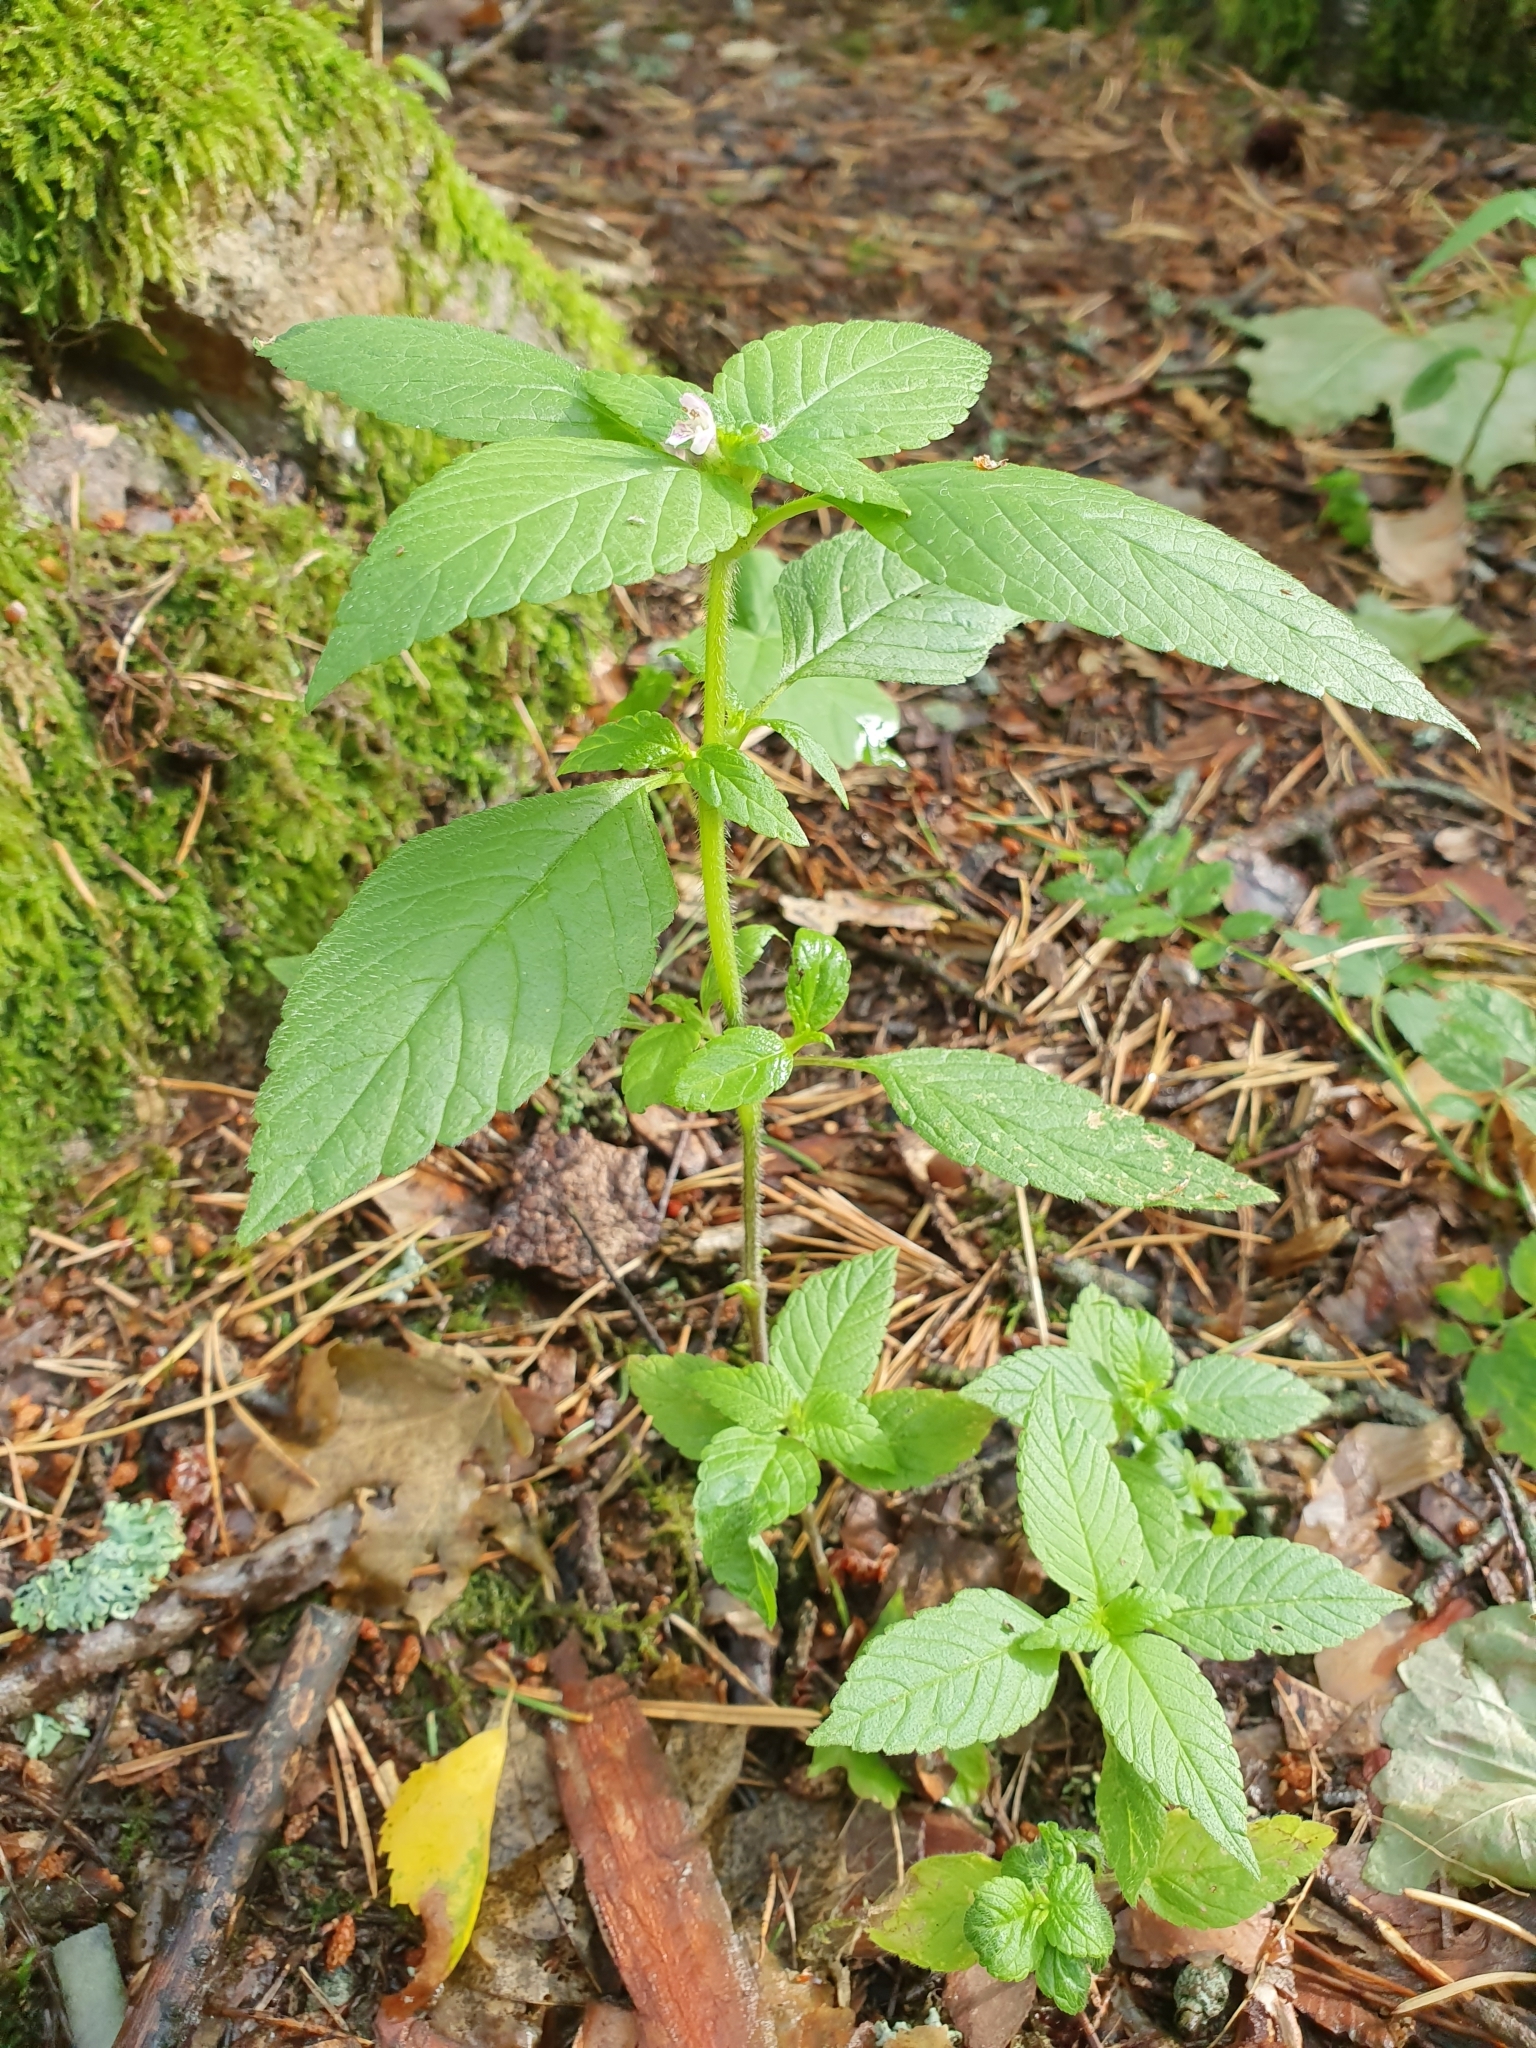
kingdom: Plantae
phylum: Tracheophyta
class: Magnoliopsida
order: Lamiales
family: Lamiaceae
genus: Galeopsis
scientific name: Galeopsis bifida
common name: Bifid hemp-nettle
